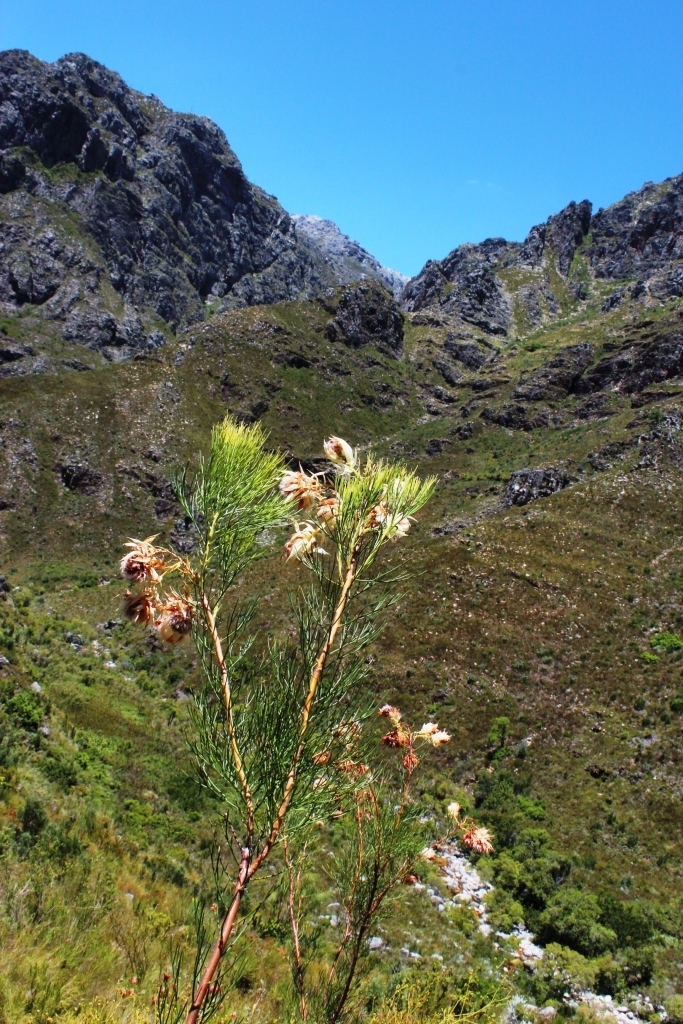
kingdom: Plantae
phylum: Tracheophyta
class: Magnoliopsida
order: Proteales
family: Proteaceae
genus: Serruria
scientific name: Serruria florida
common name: Blushing bride
